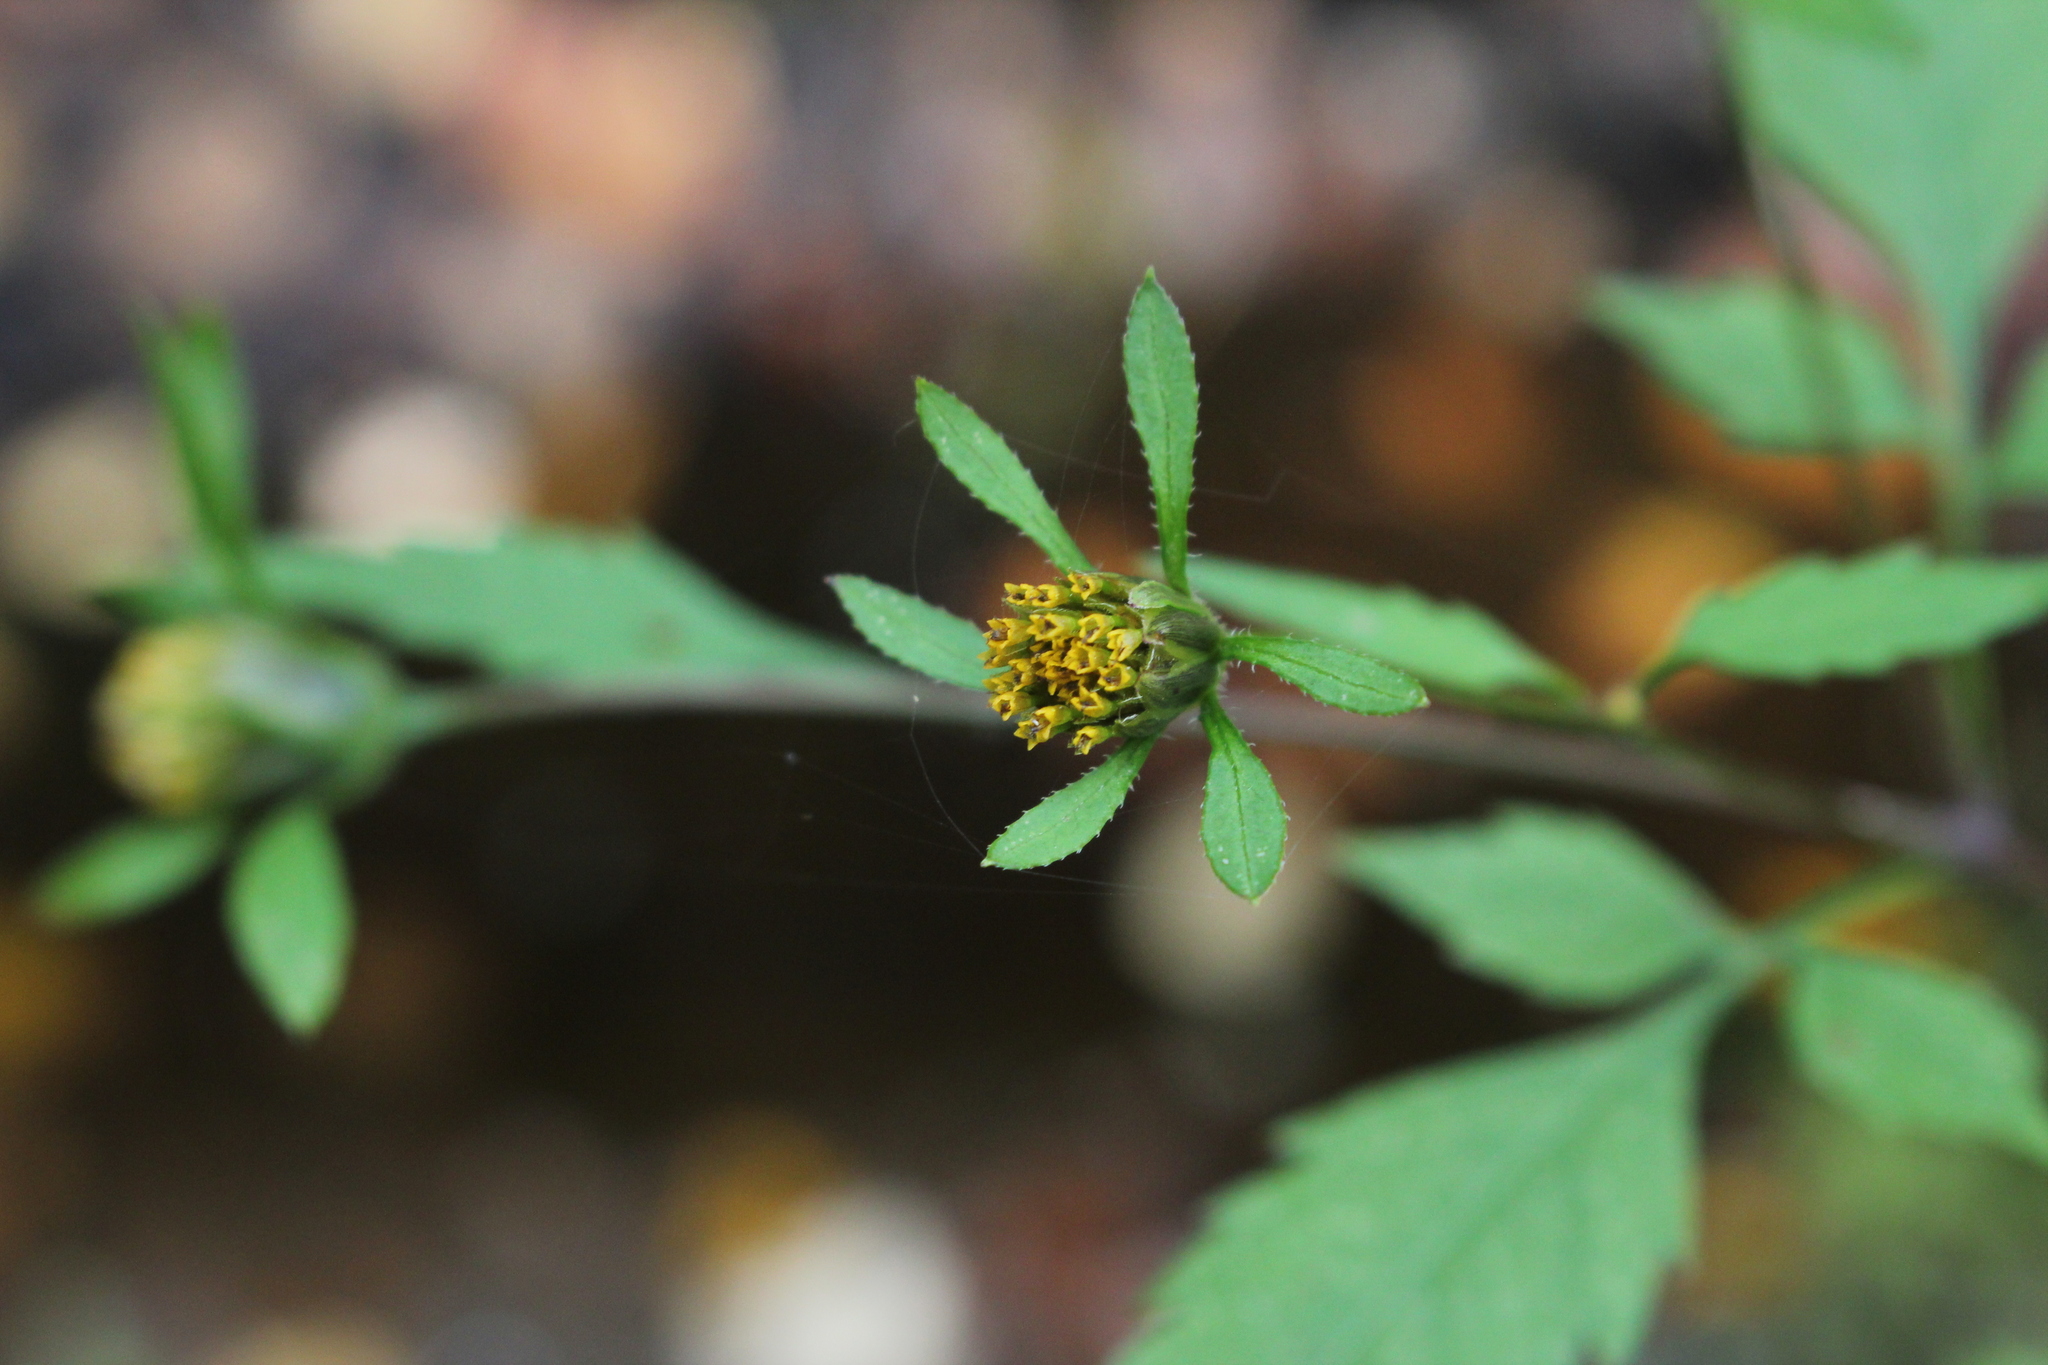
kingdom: Plantae
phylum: Tracheophyta
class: Magnoliopsida
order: Asterales
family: Asteraceae
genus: Bidens
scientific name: Bidens frondosa
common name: Beggarticks
